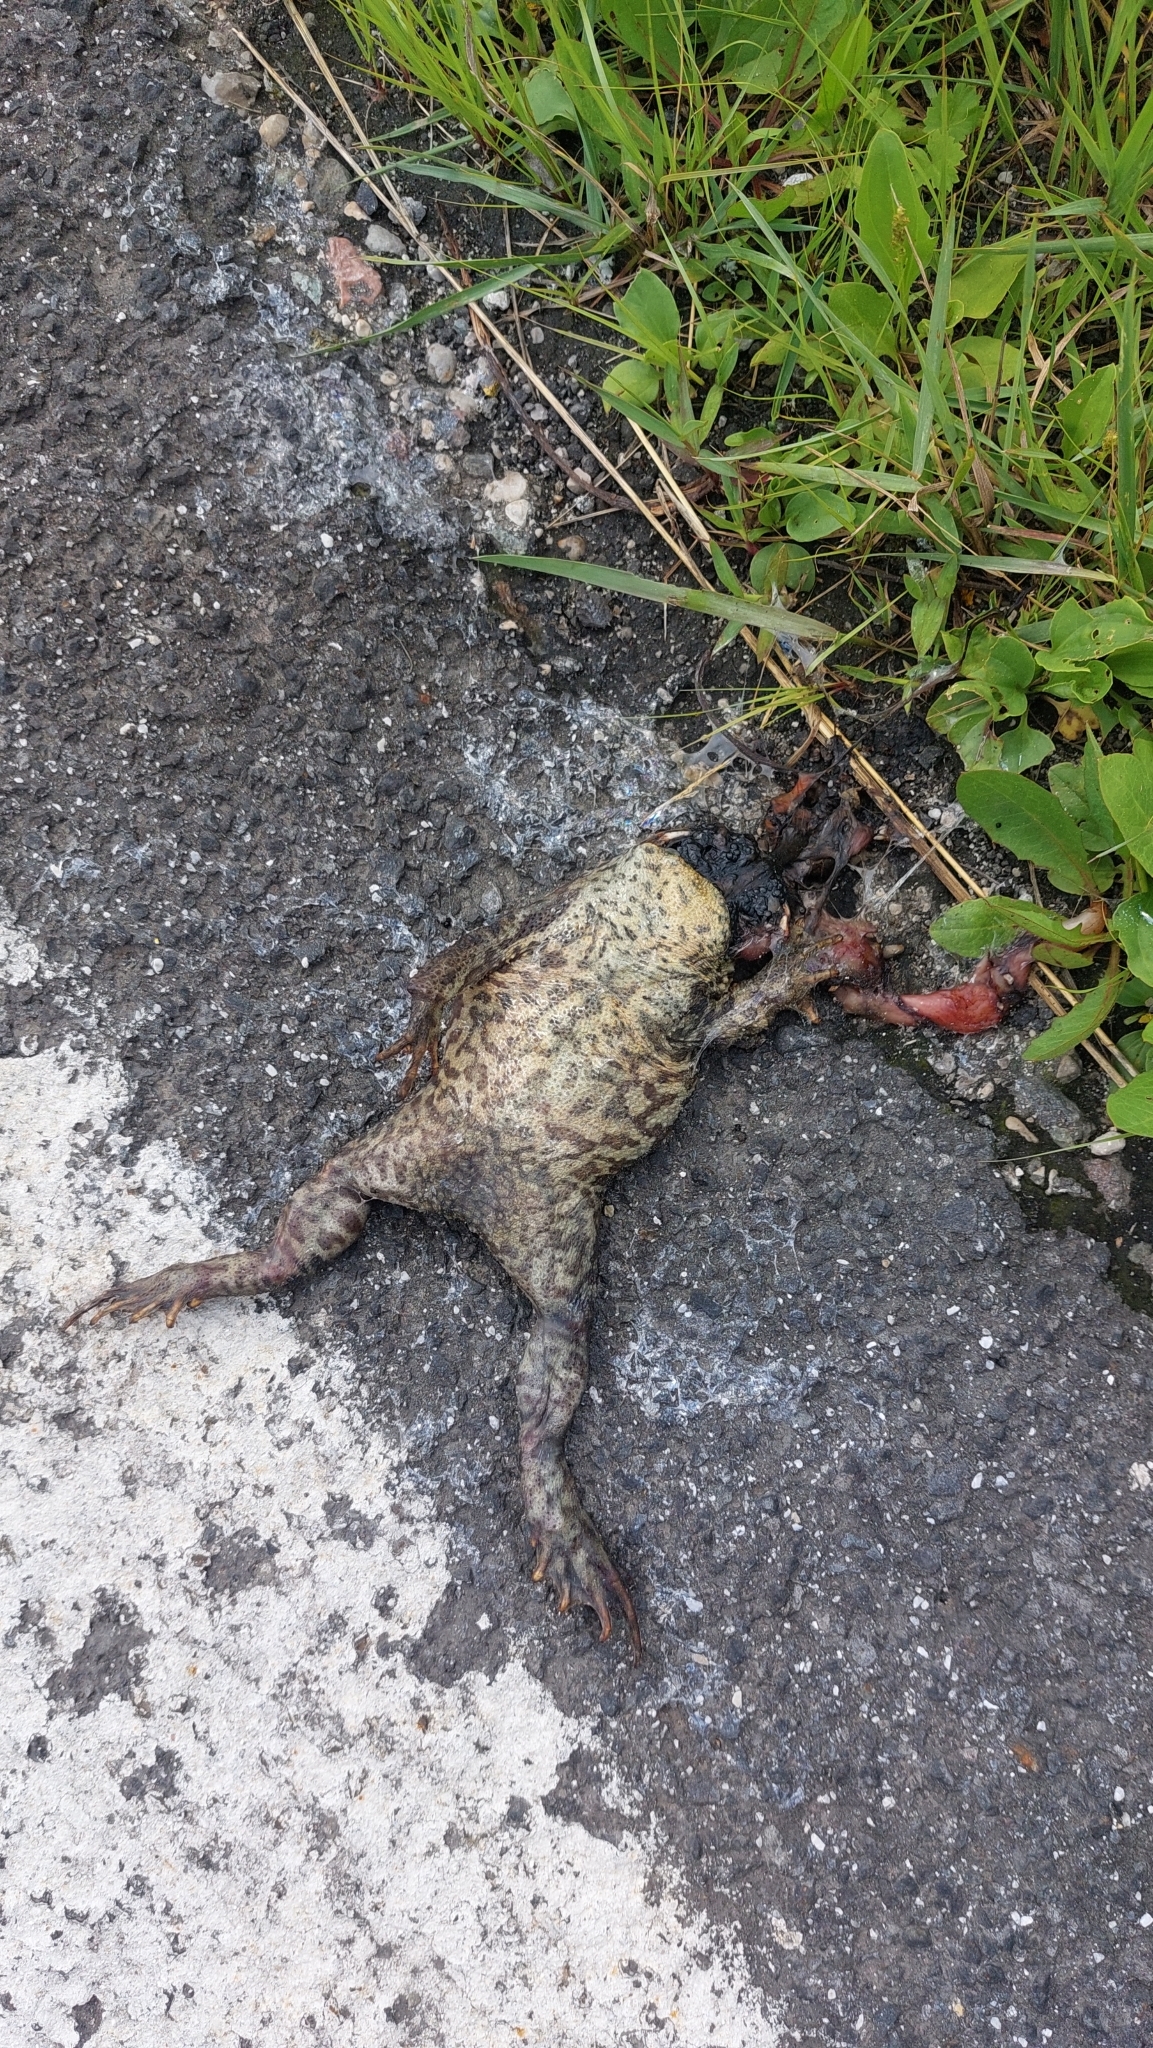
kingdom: Animalia
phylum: Chordata
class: Amphibia
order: Anura
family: Bufonidae
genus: Bufo
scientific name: Bufo bufo
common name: Common toad
